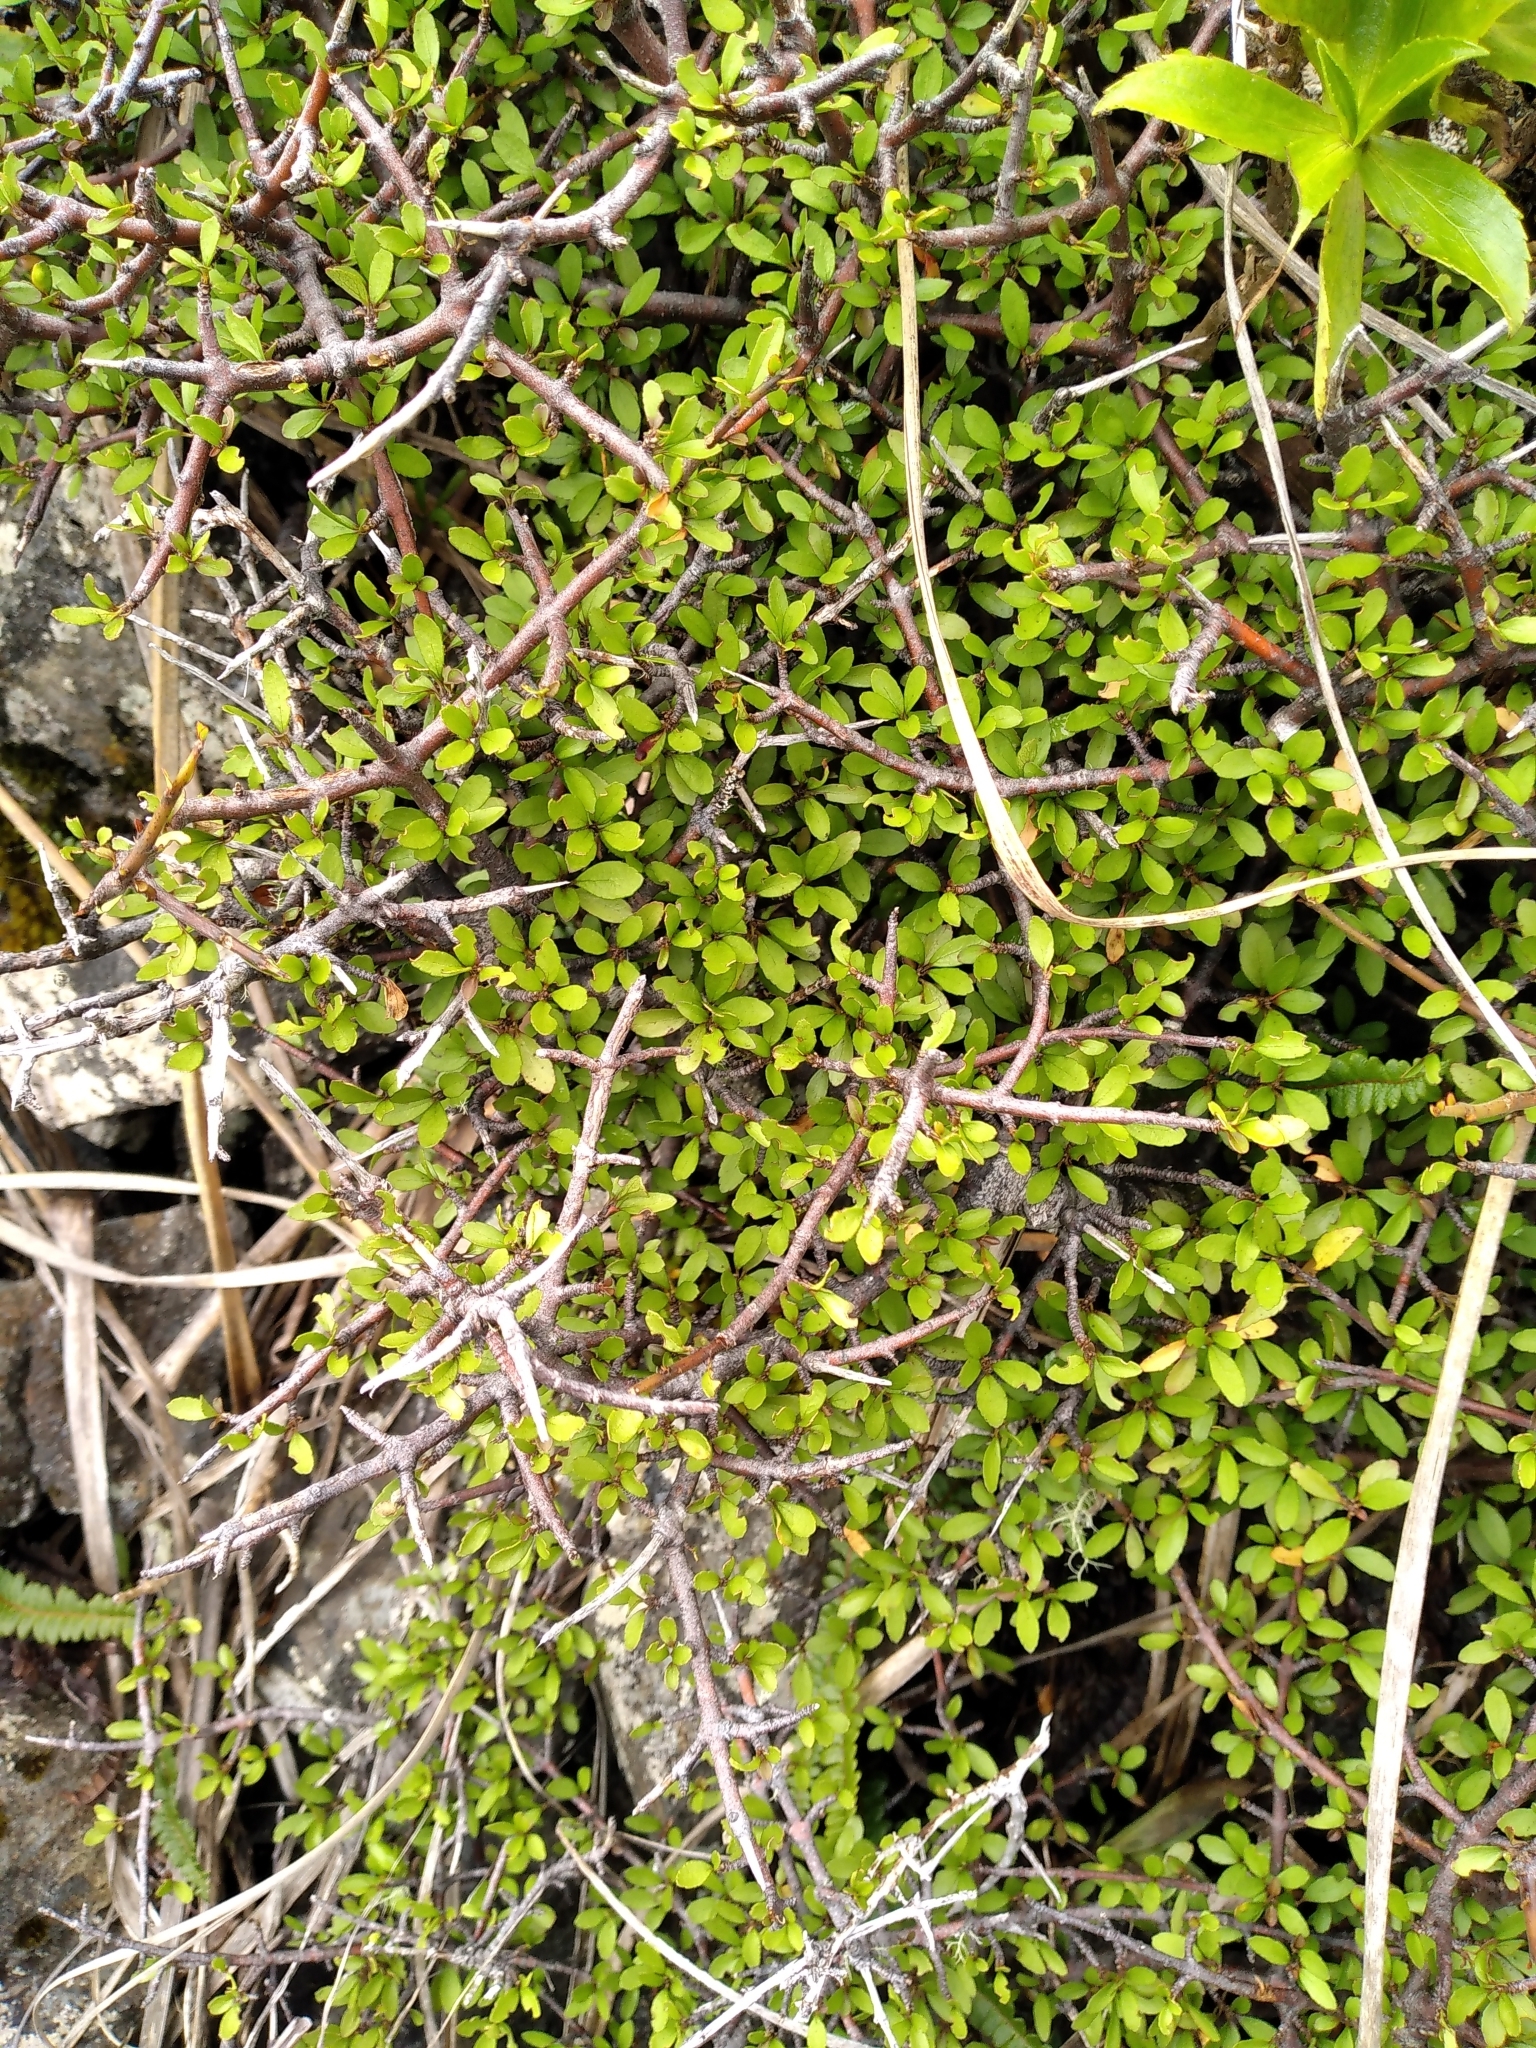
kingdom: Plantae
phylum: Tracheophyta
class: Magnoliopsida
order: Oxalidales
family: Elaeocarpaceae
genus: Aristotelia
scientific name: Aristotelia fruticosa
